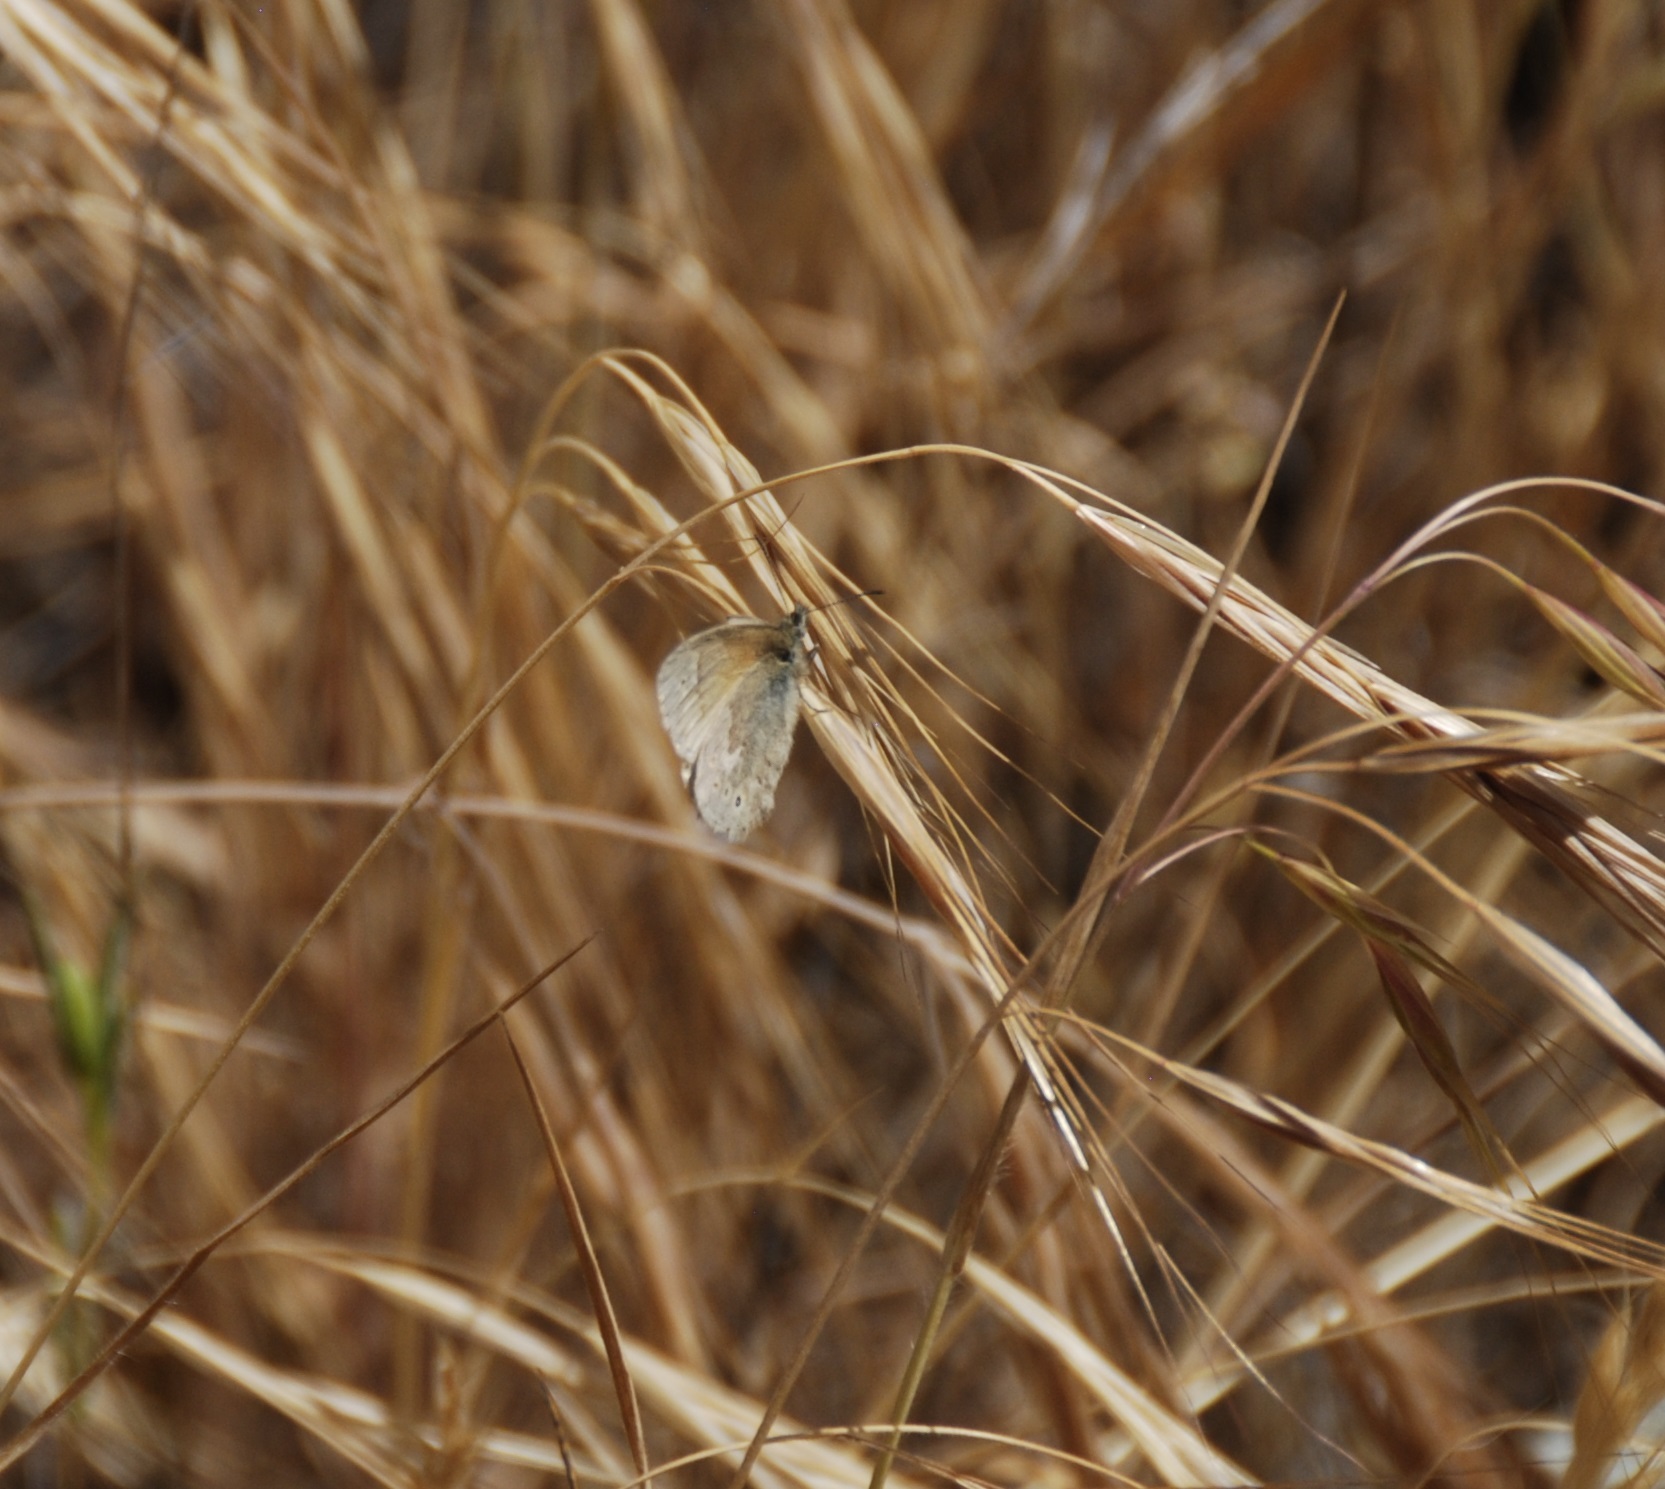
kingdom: Animalia
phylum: Arthropoda
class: Insecta
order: Lepidoptera
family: Nymphalidae
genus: Coenonympha
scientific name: Coenonympha california
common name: Common ringlet
